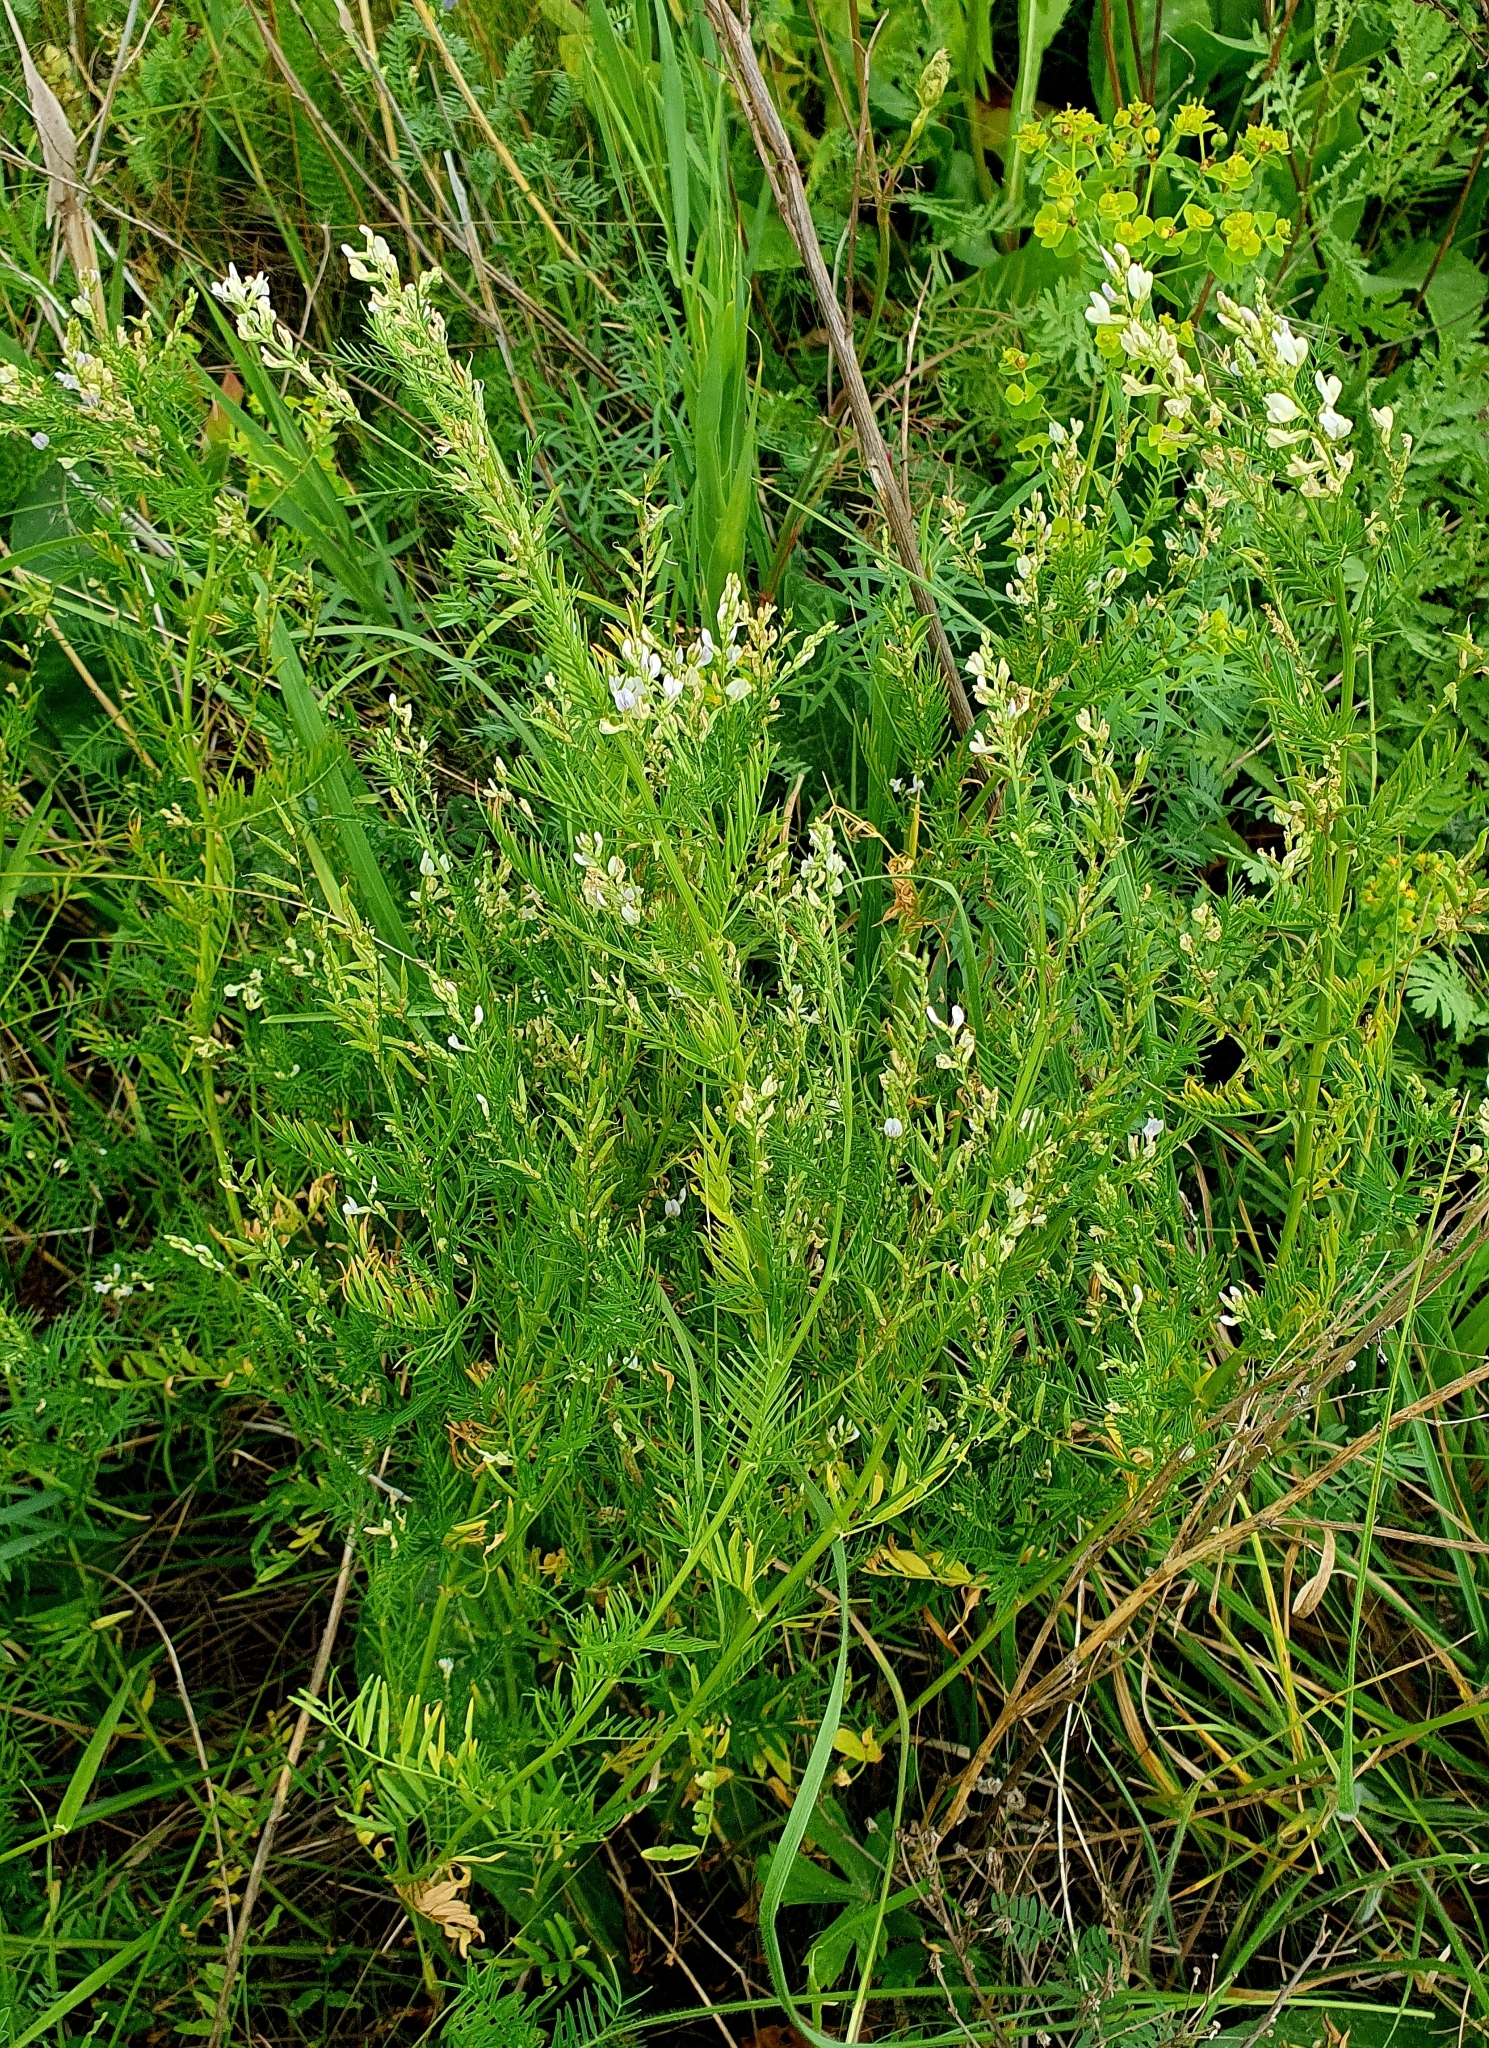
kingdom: Plantae
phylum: Tracheophyta
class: Magnoliopsida
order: Fabales
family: Fabaceae
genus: Astragalus
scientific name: Astragalus sulcatus
